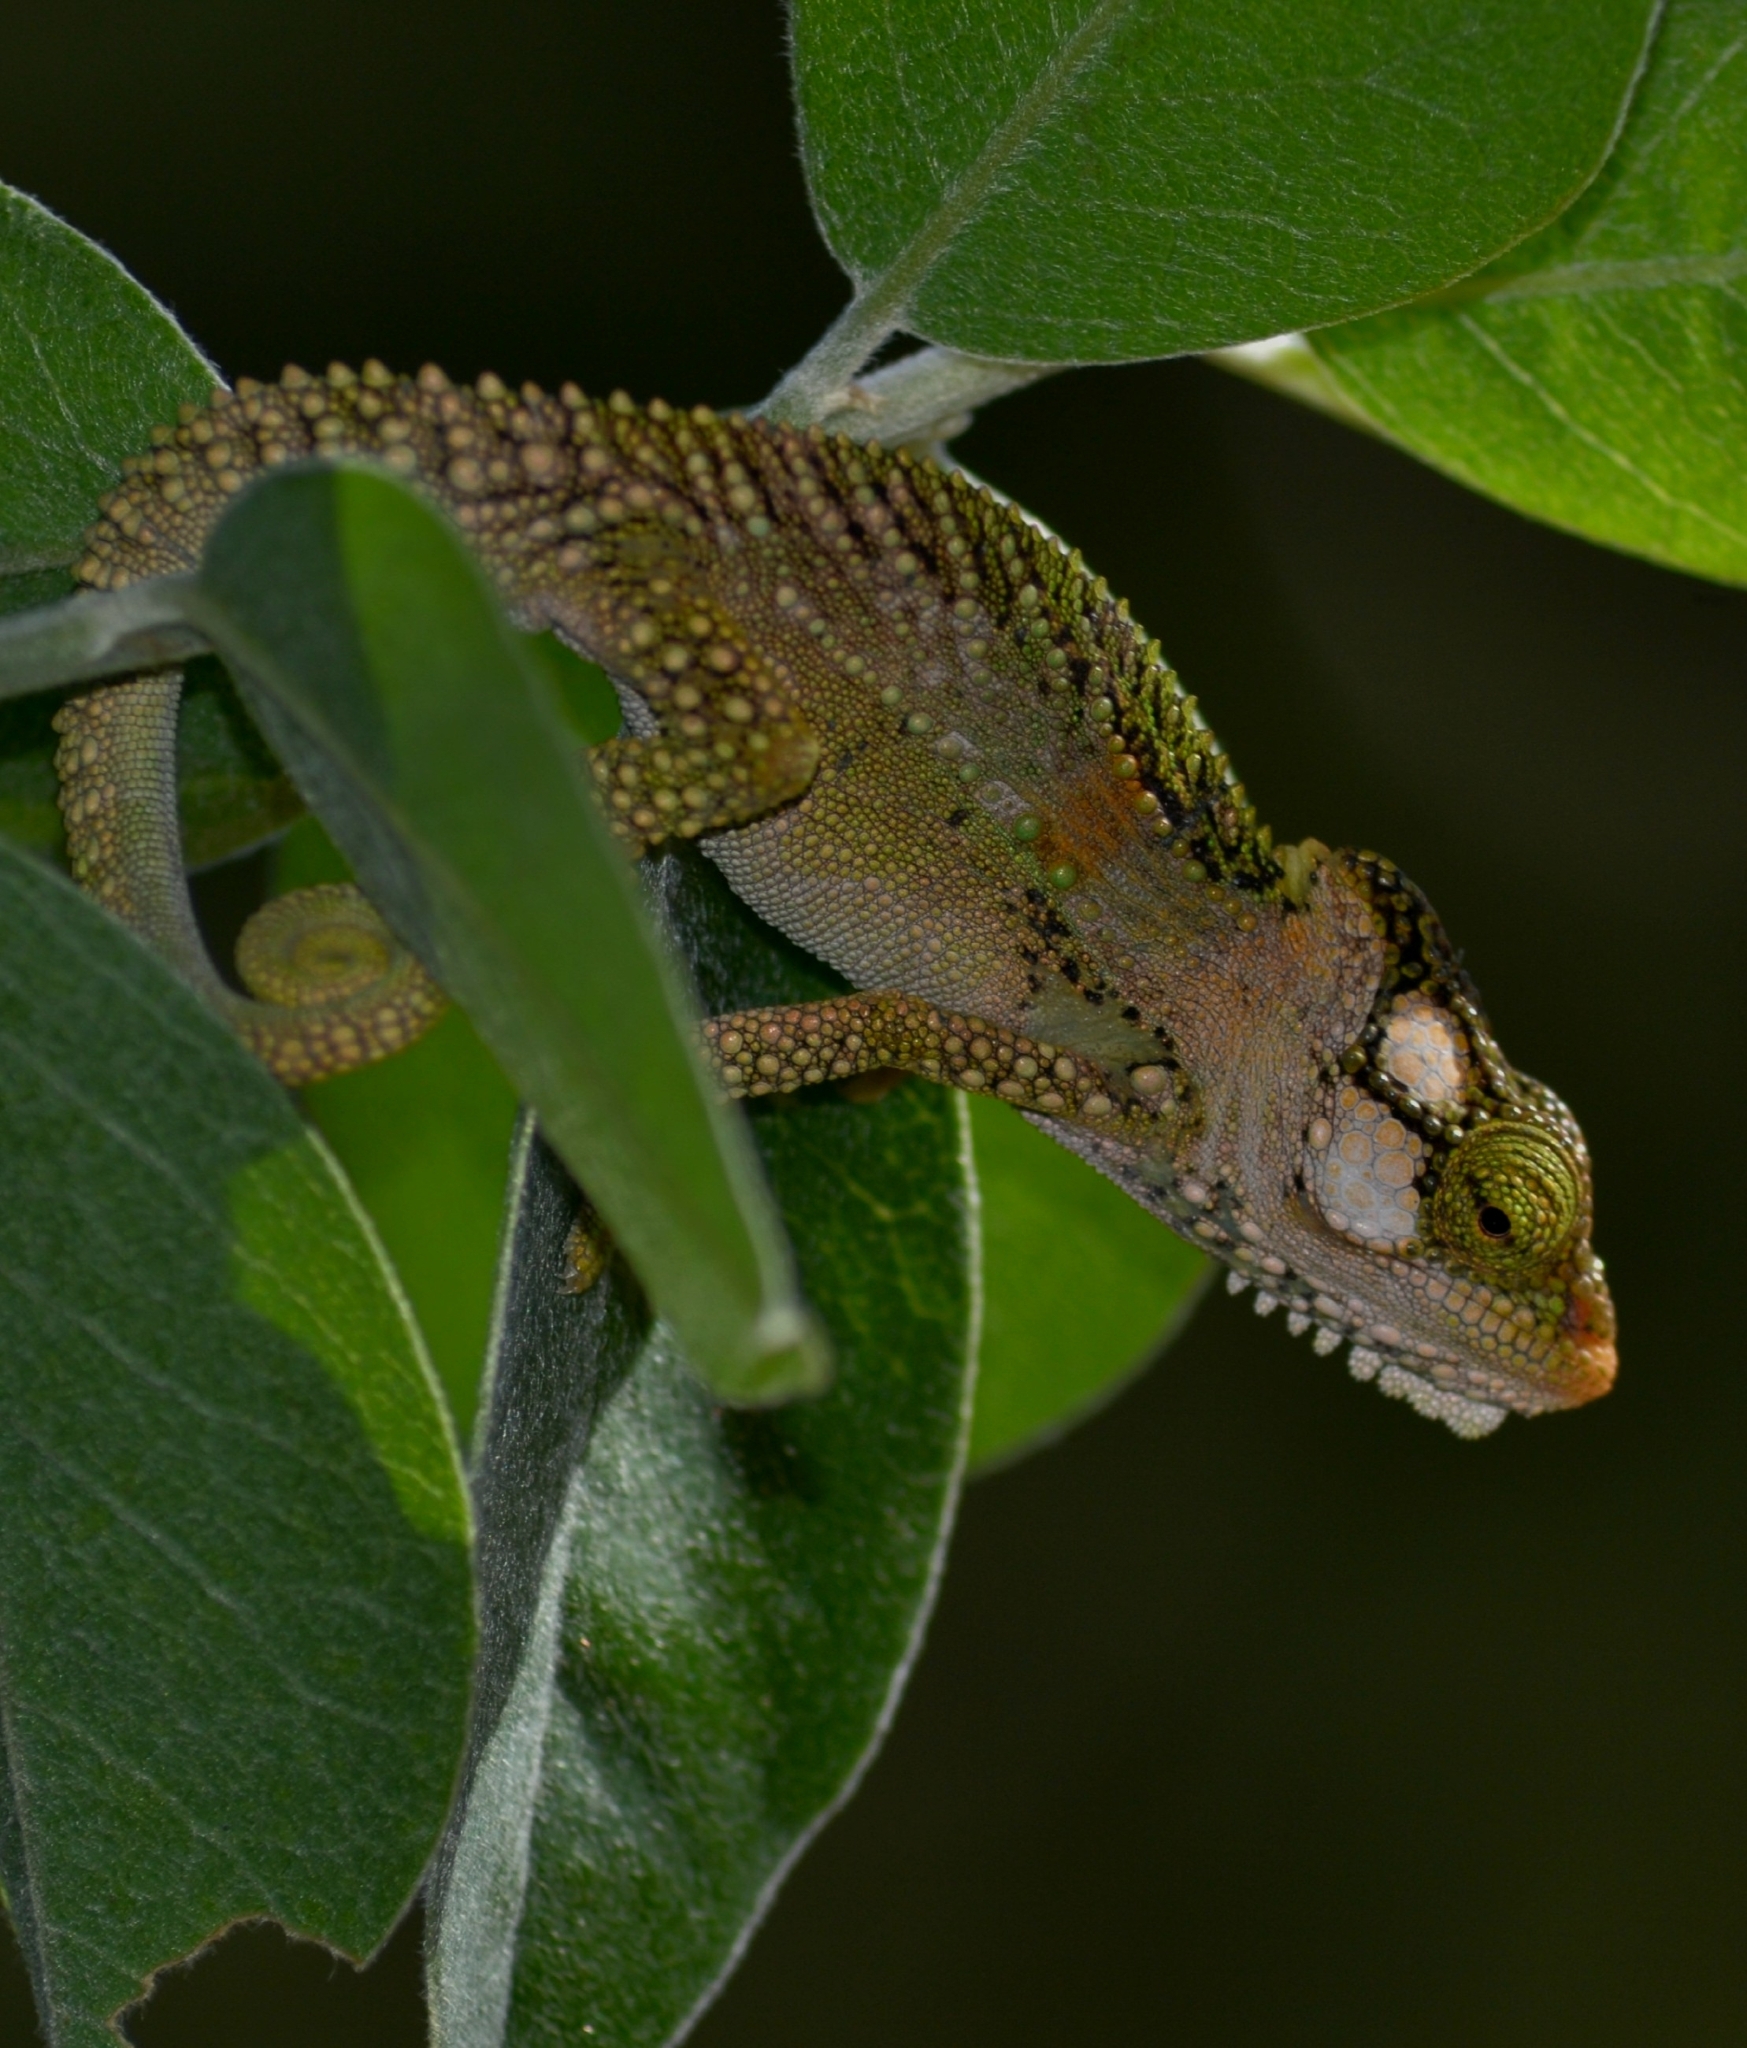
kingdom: Animalia
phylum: Chordata
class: Squamata
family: Chamaeleonidae
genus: Bradypodion
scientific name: Bradypodion damaranum
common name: Knysna dwarf chameleon
